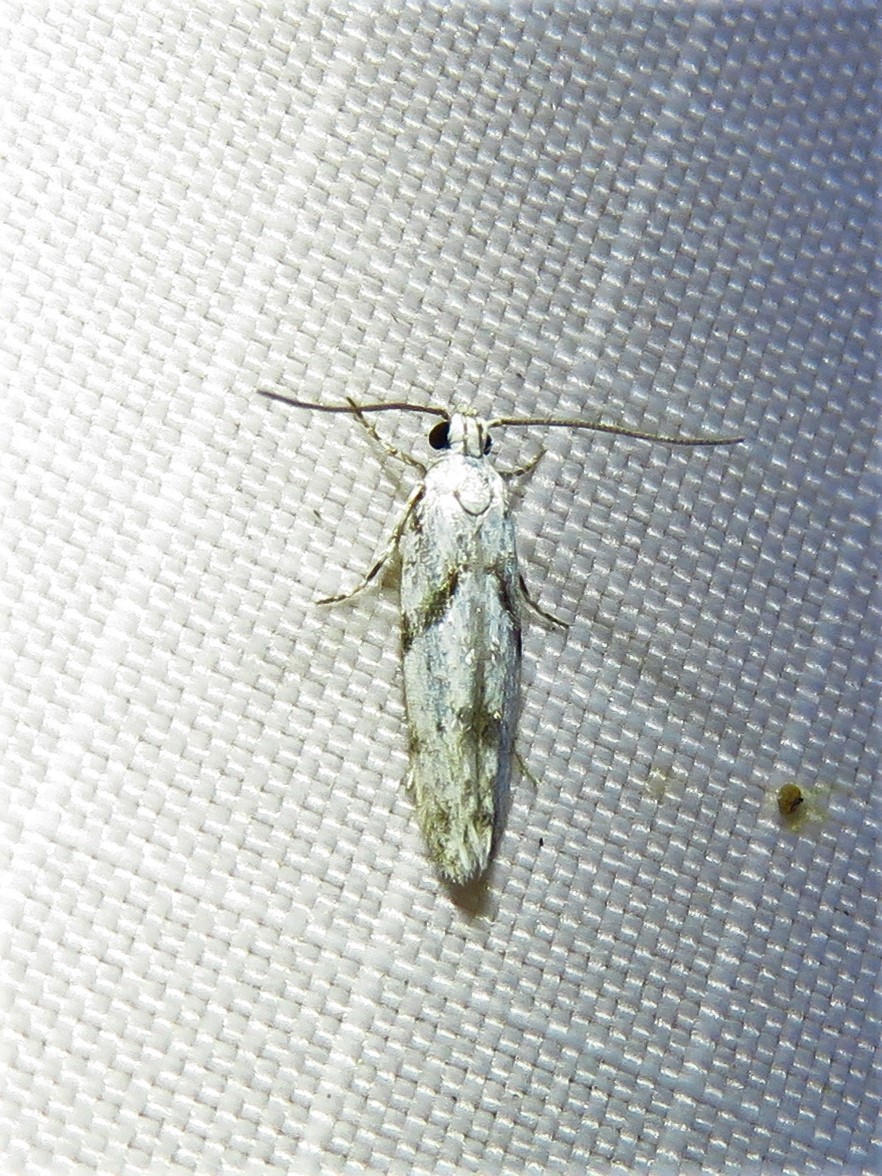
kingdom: Animalia
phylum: Arthropoda
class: Insecta
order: Lepidoptera
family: Gelechiidae
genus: Arogalea
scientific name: Arogalea cristifasciella
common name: White stripe-backed moth
